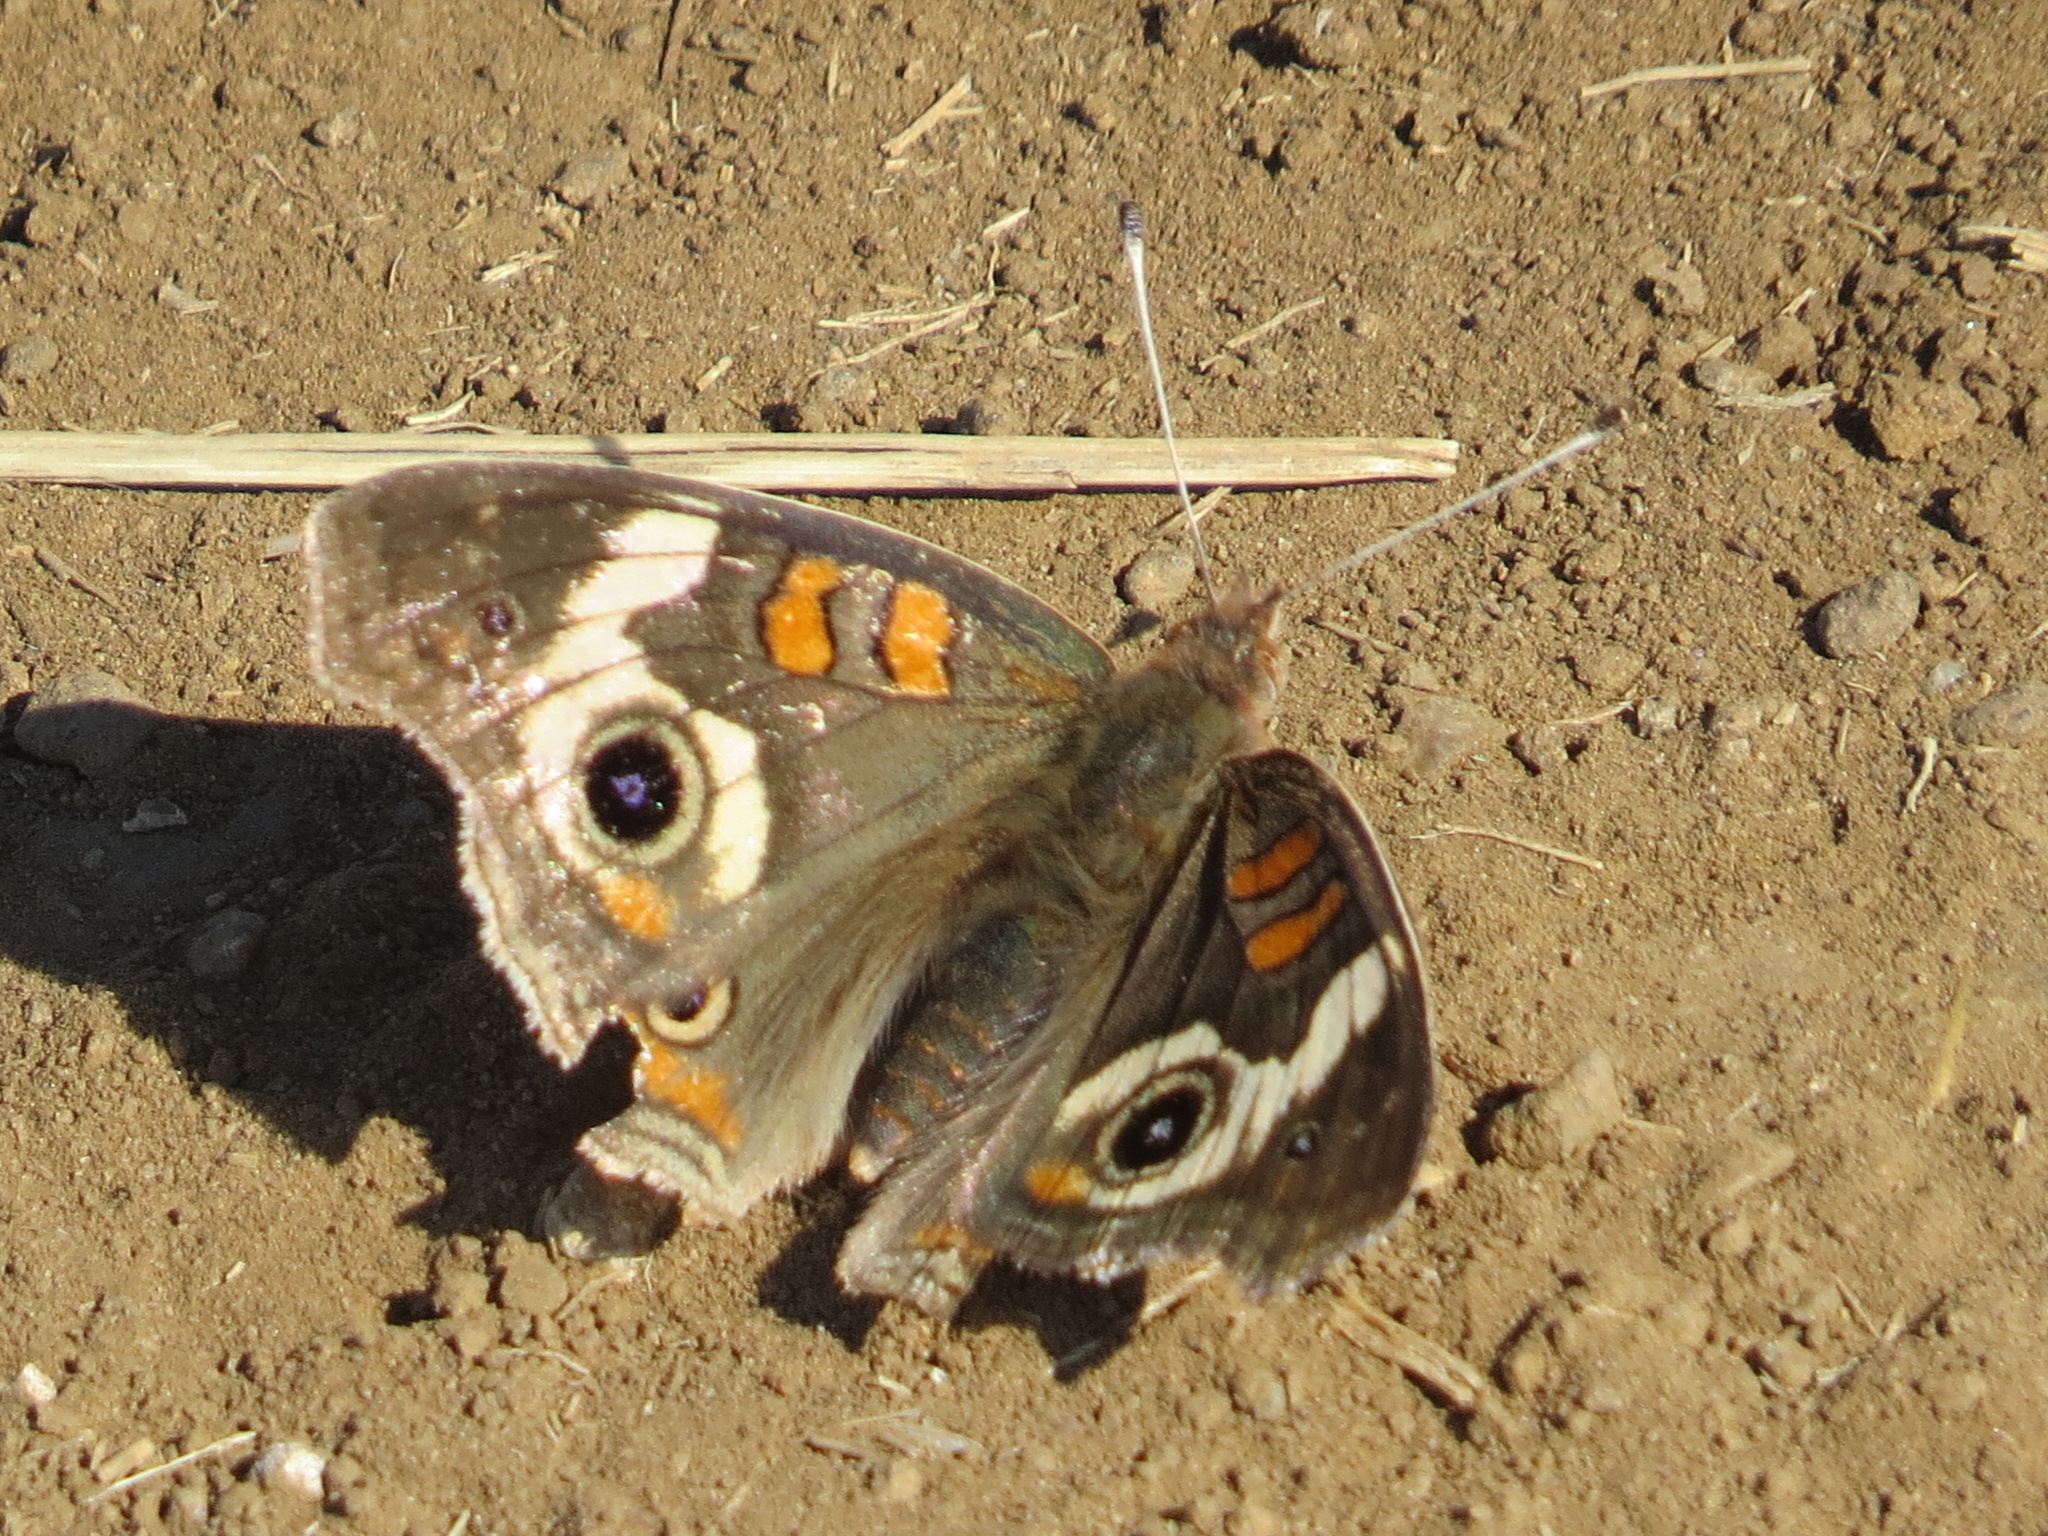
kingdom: Animalia
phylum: Arthropoda
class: Insecta
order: Lepidoptera
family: Nymphalidae
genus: Junonia
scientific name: Junonia grisea
